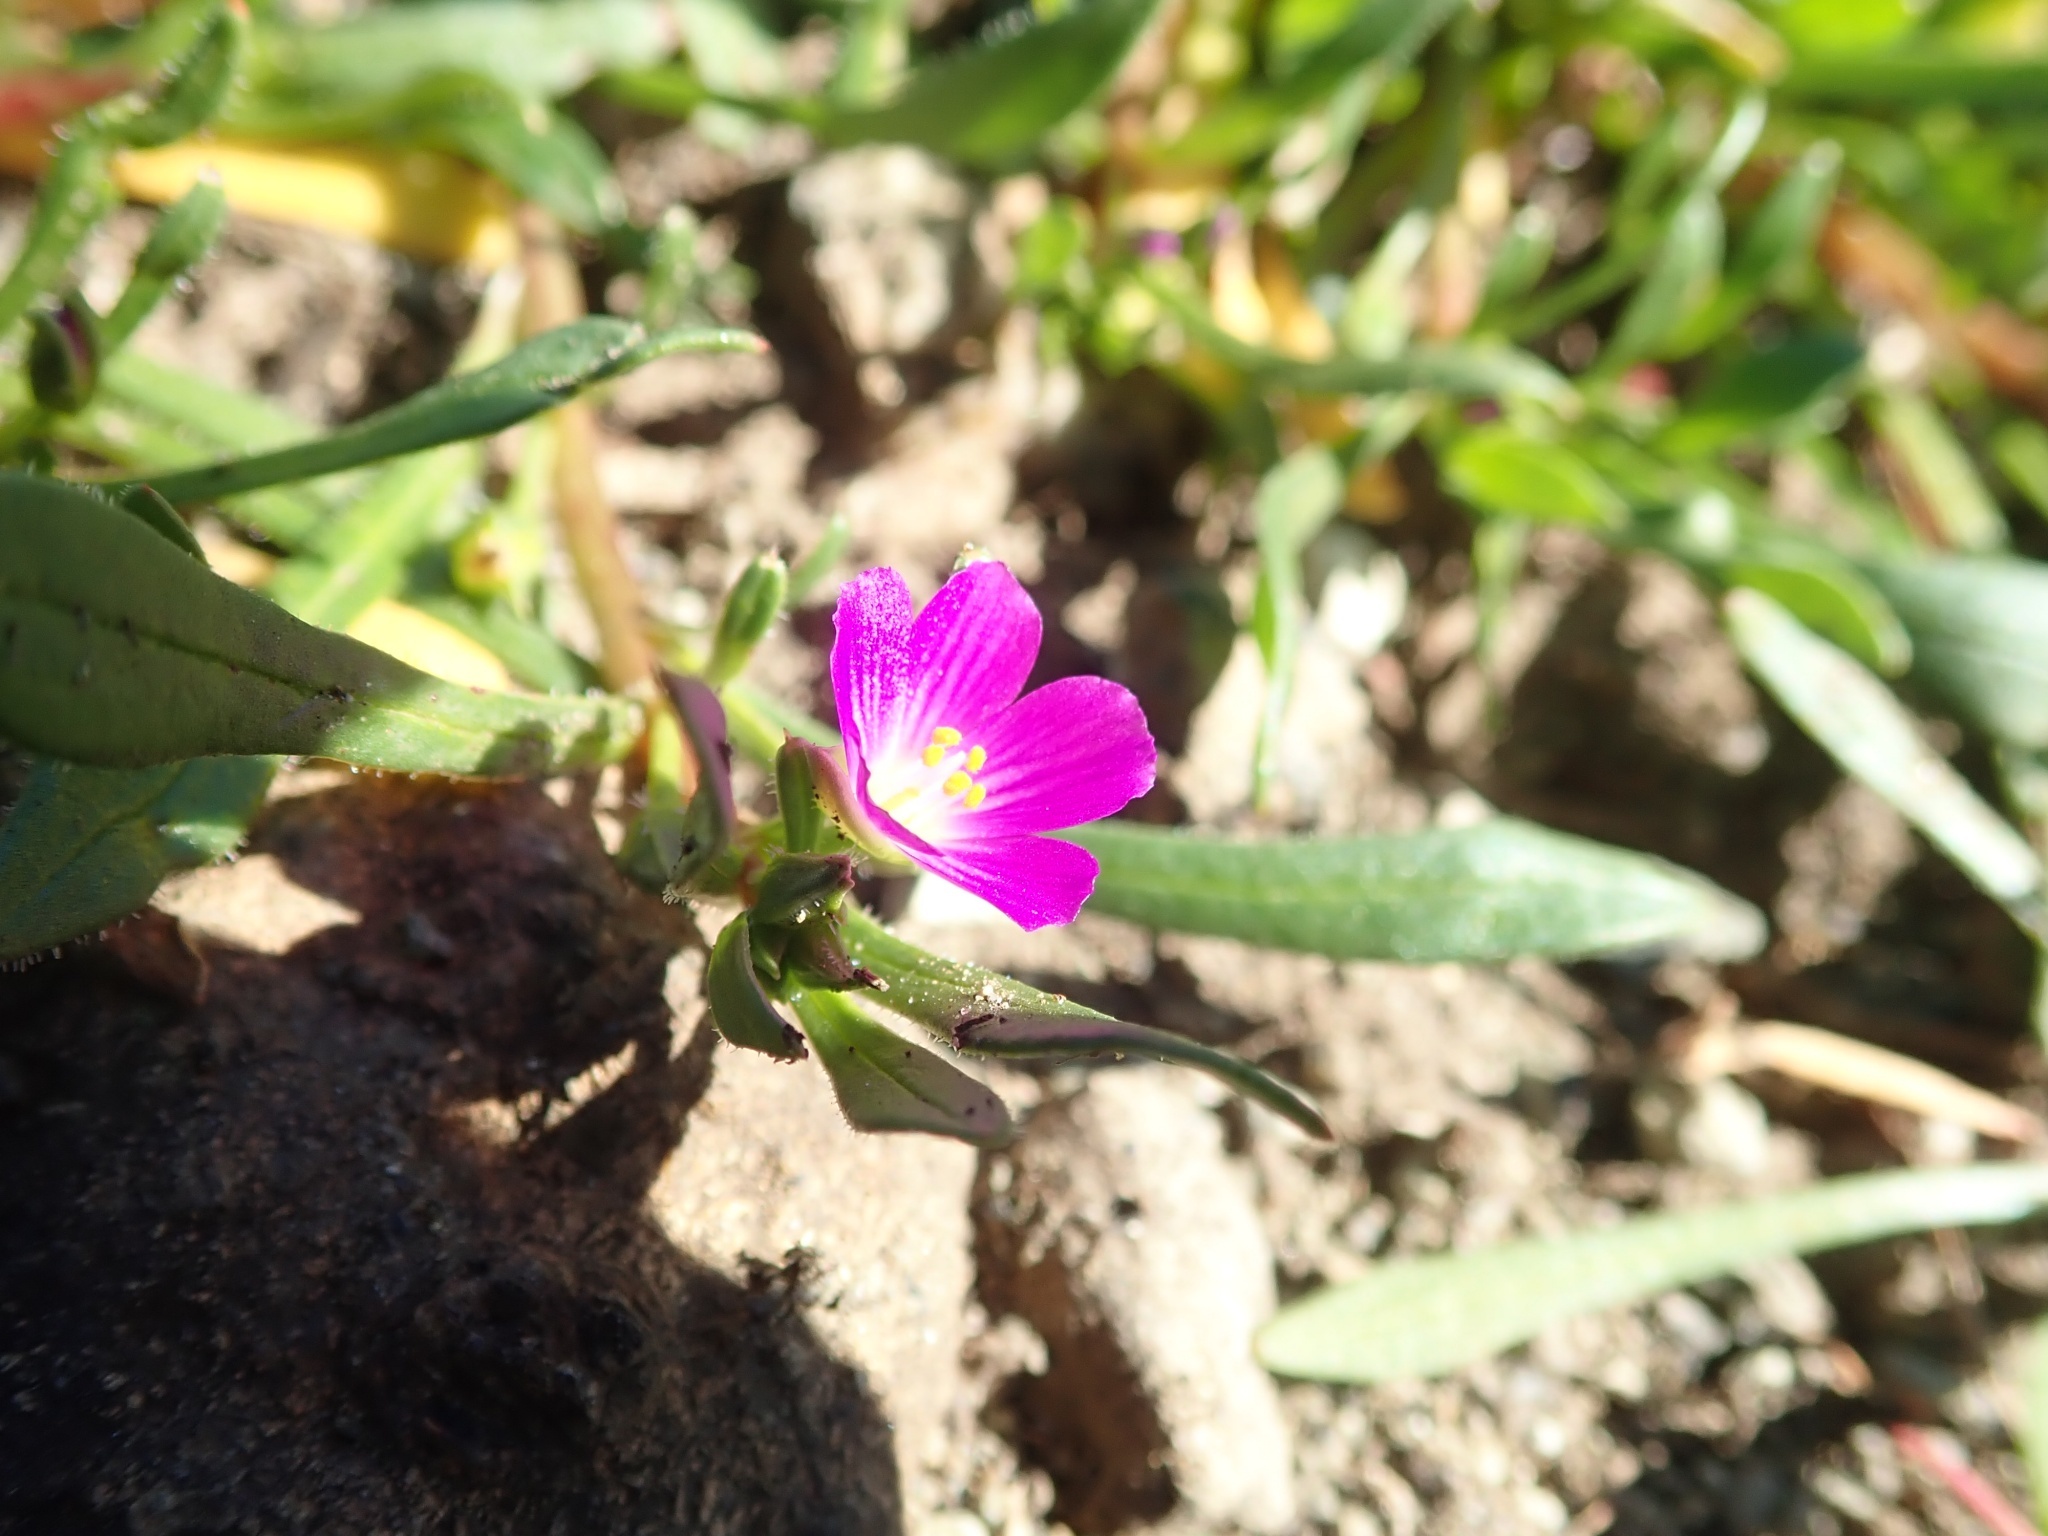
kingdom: Plantae
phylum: Tracheophyta
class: Magnoliopsida
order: Caryophyllales
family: Montiaceae
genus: Calandrinia
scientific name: Calandrinia menziesii
